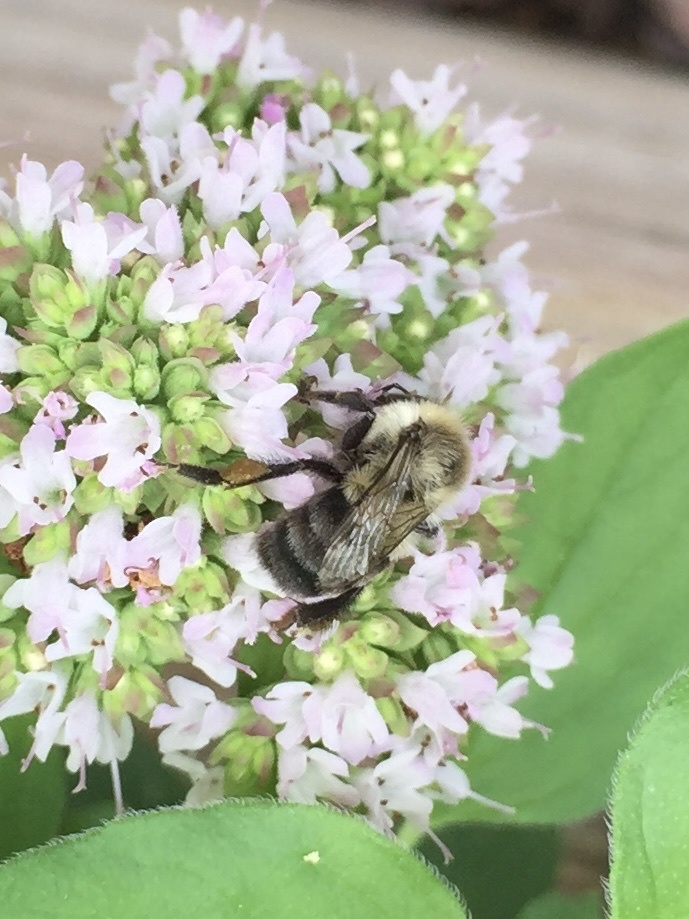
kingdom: Animalia
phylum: Arthropoda
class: Insecta
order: Hymenoptera
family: Apidae
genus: Bombus
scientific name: Bombus impatiens
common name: Common eastern bumble bee
